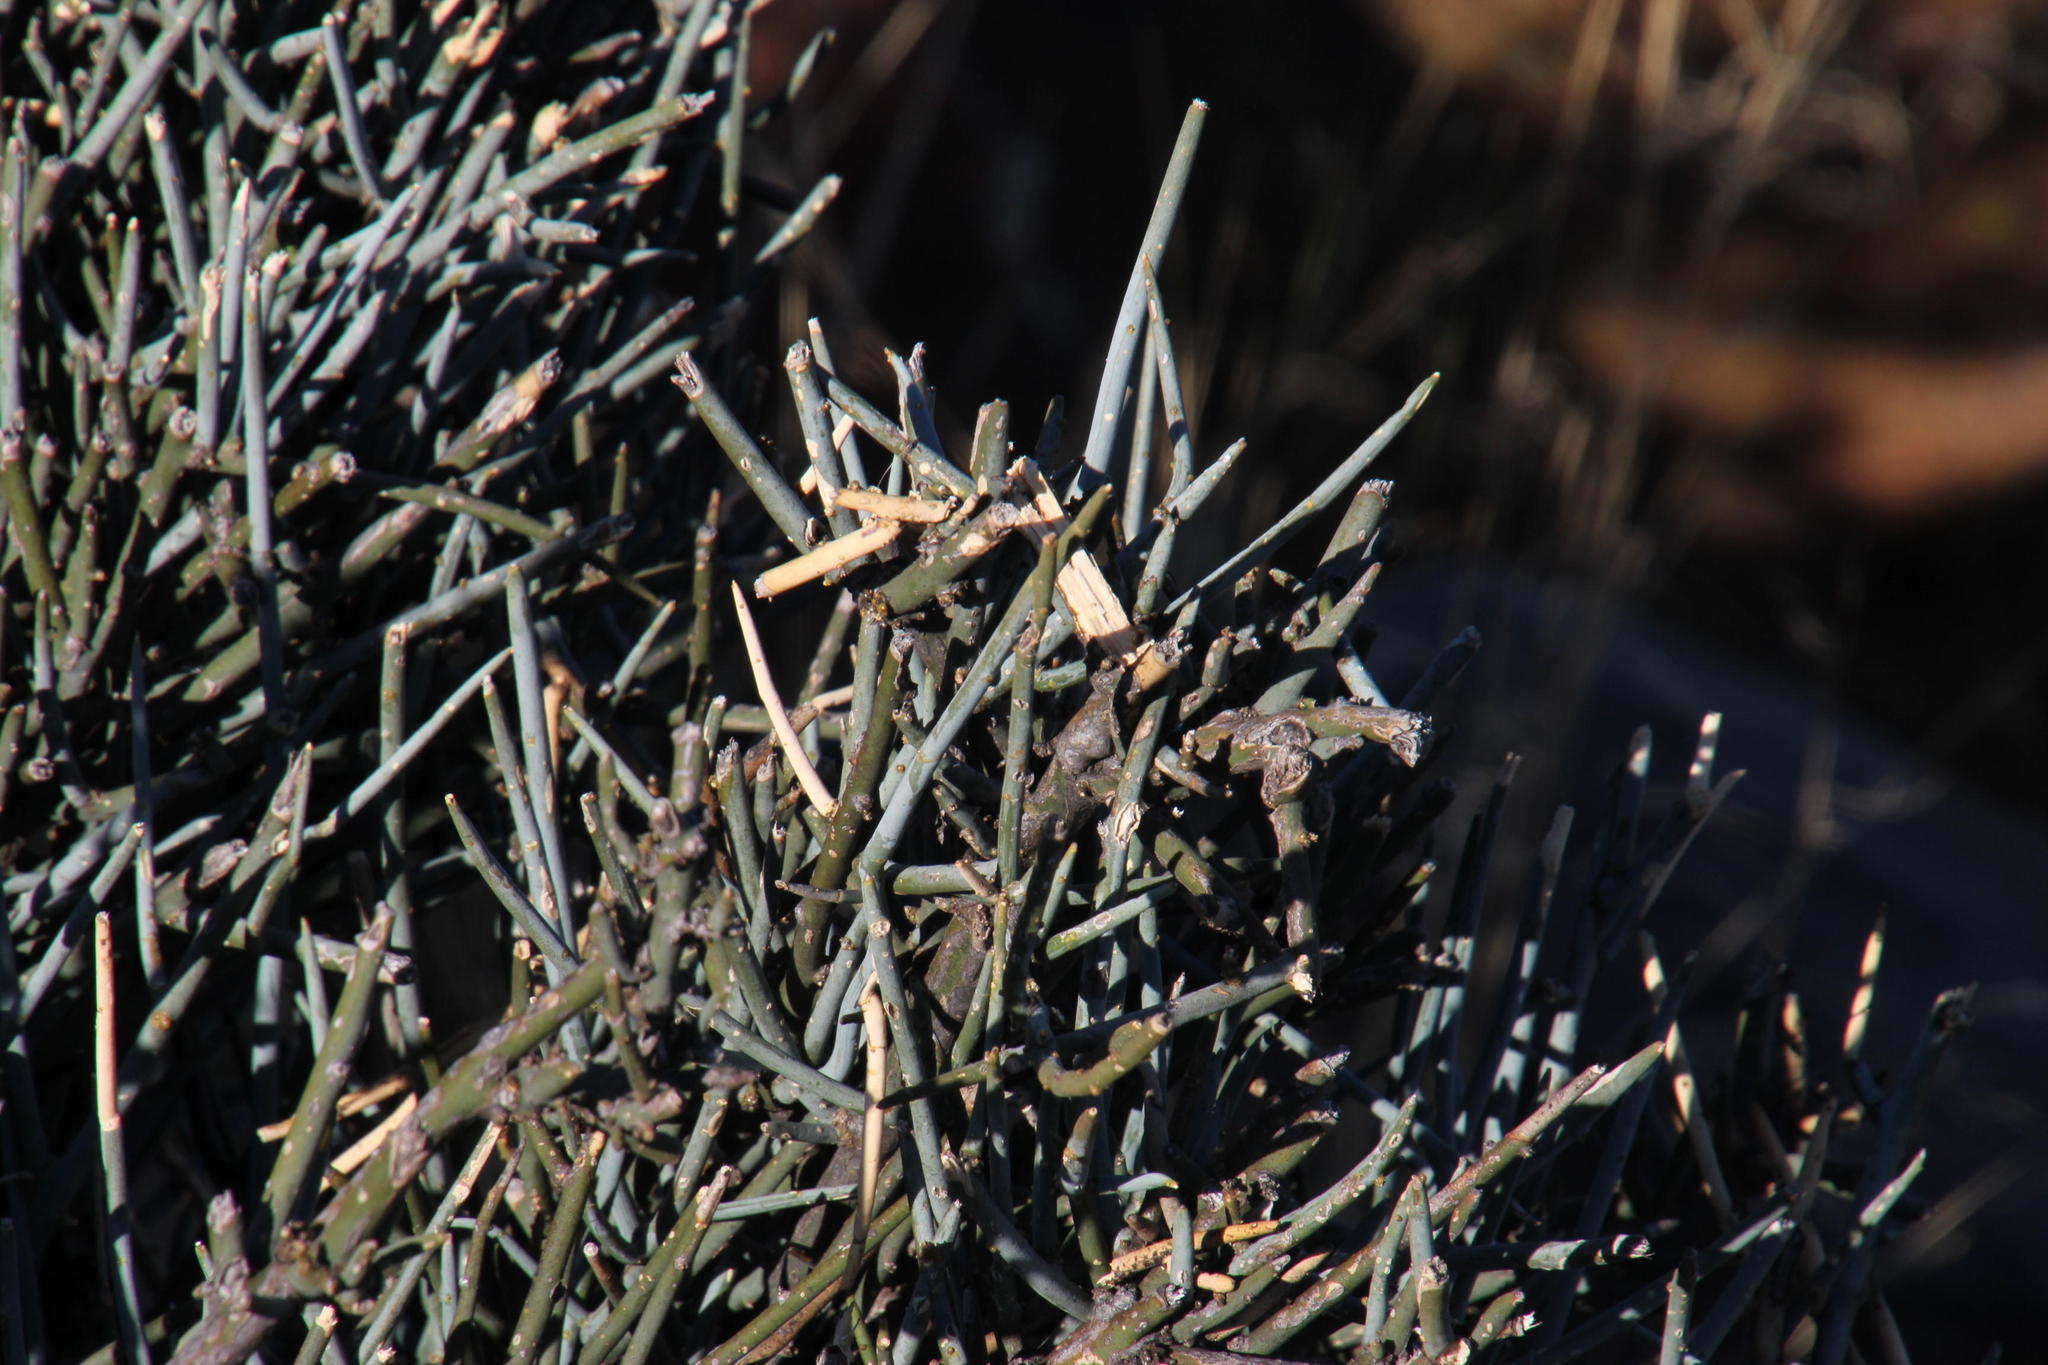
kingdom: Plantae
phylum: Tracheophyta
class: Magnoliopsida
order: Brassicales
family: Capparaceae
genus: Cadaba
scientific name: Cadaba aphylla
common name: Black storm
